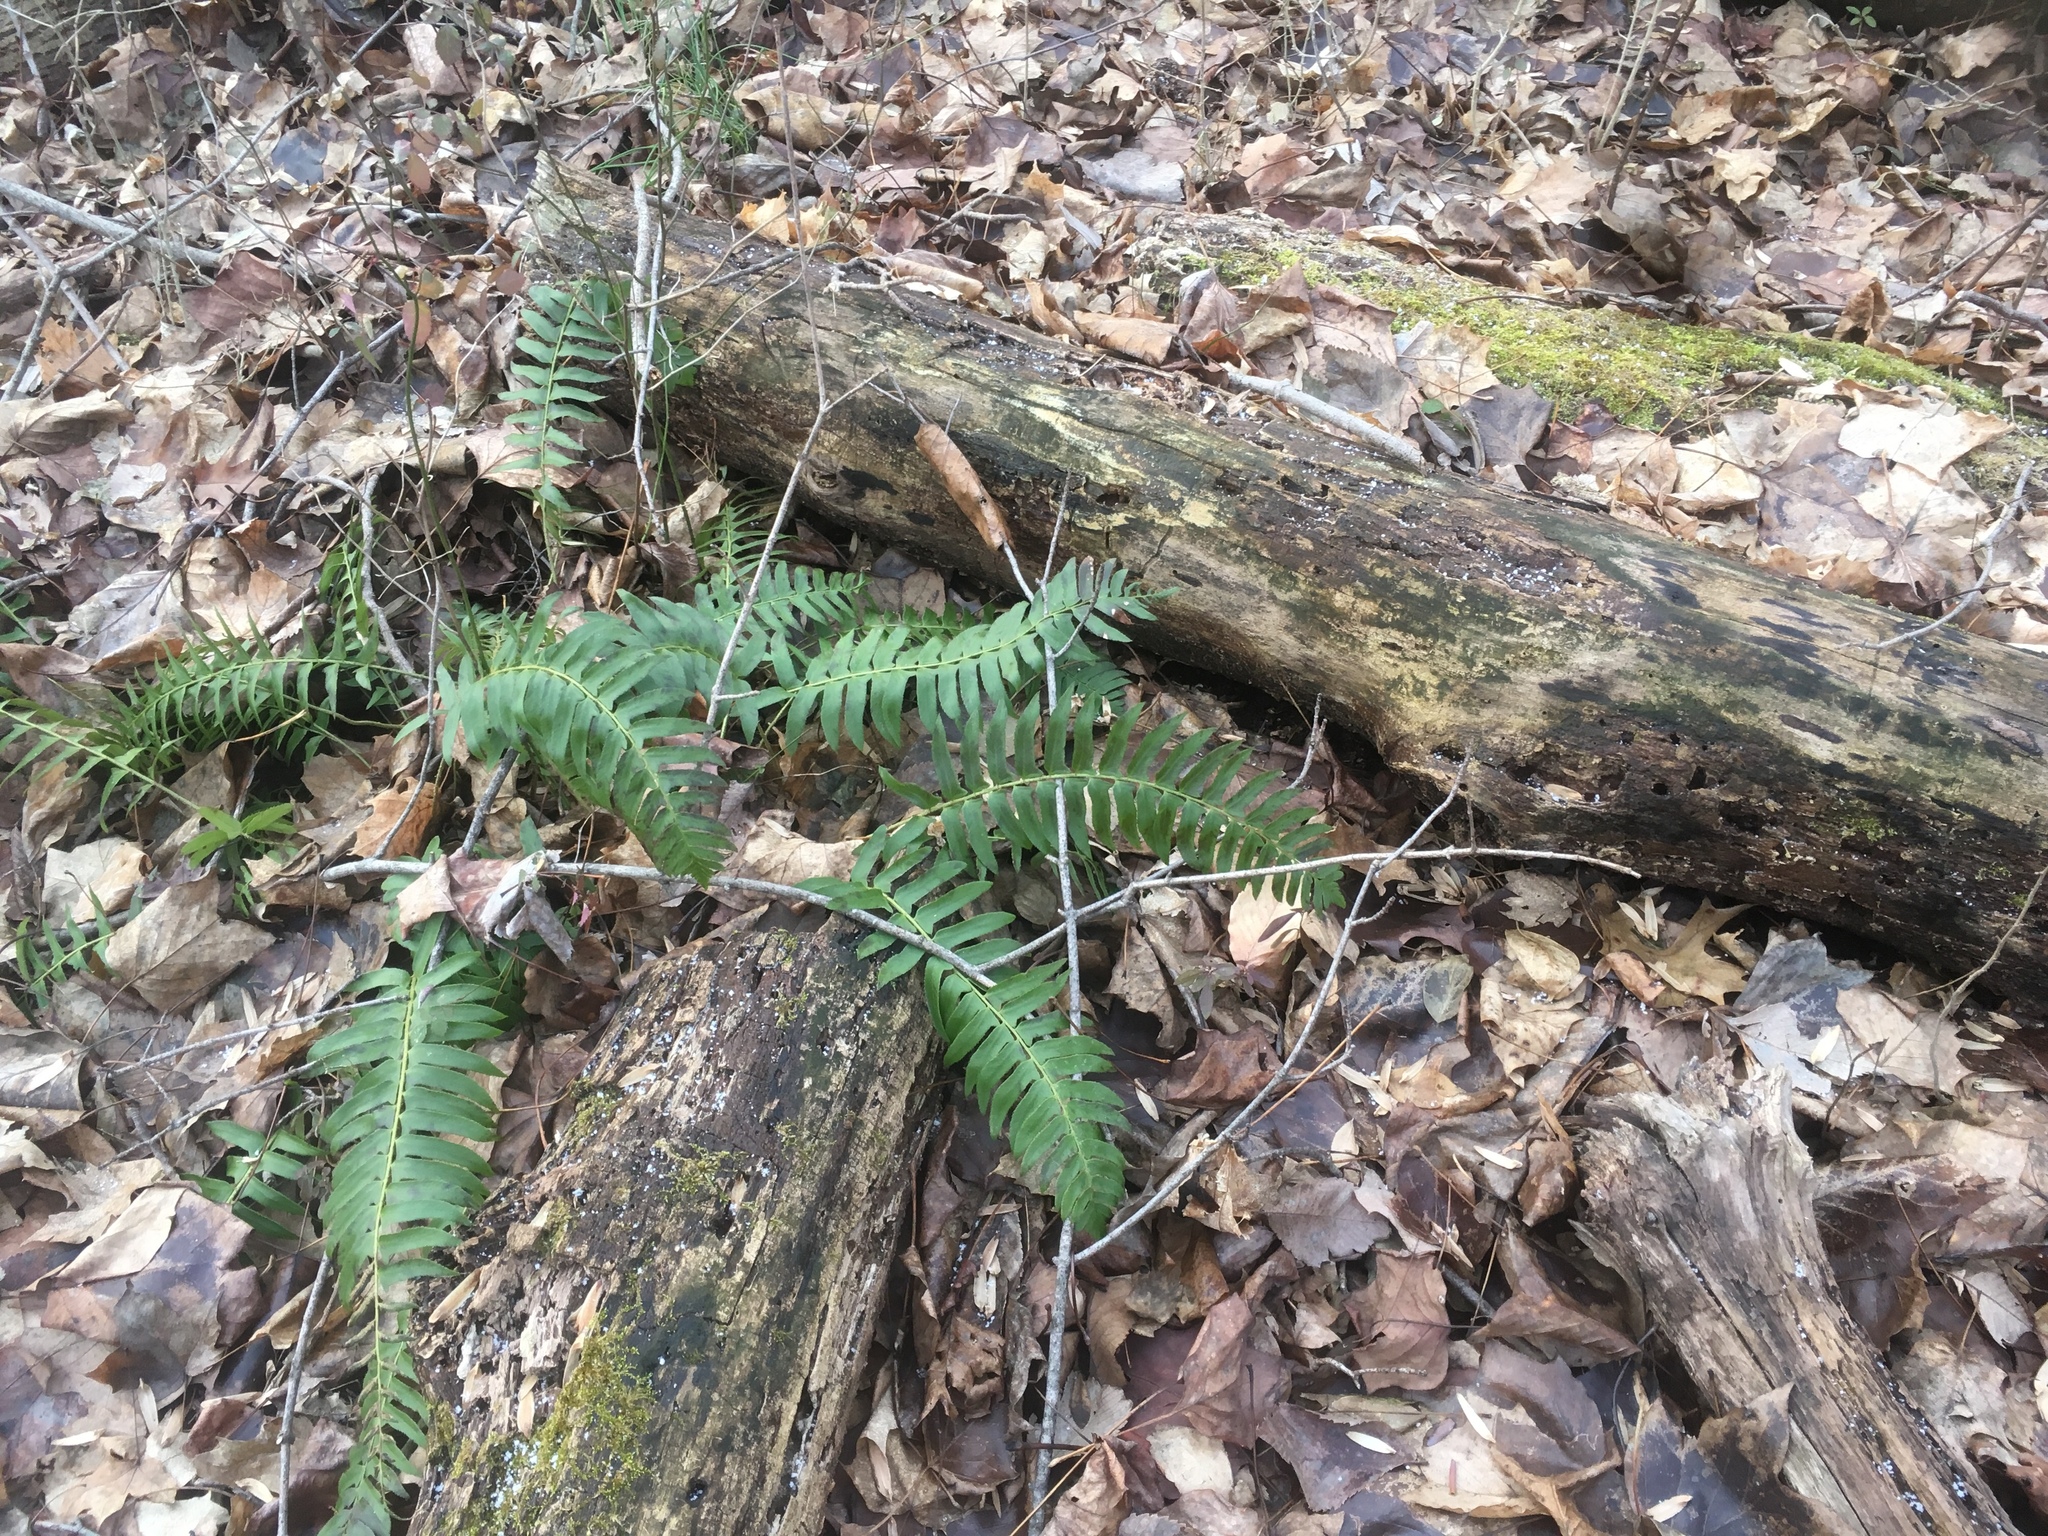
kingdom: Plantae
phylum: Tracheophyta
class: Polypodiopsida
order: Polypodiales
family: Dryopteridaceae
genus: Polystichum
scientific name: Polystichum acrostichoides
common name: Christmas fern
